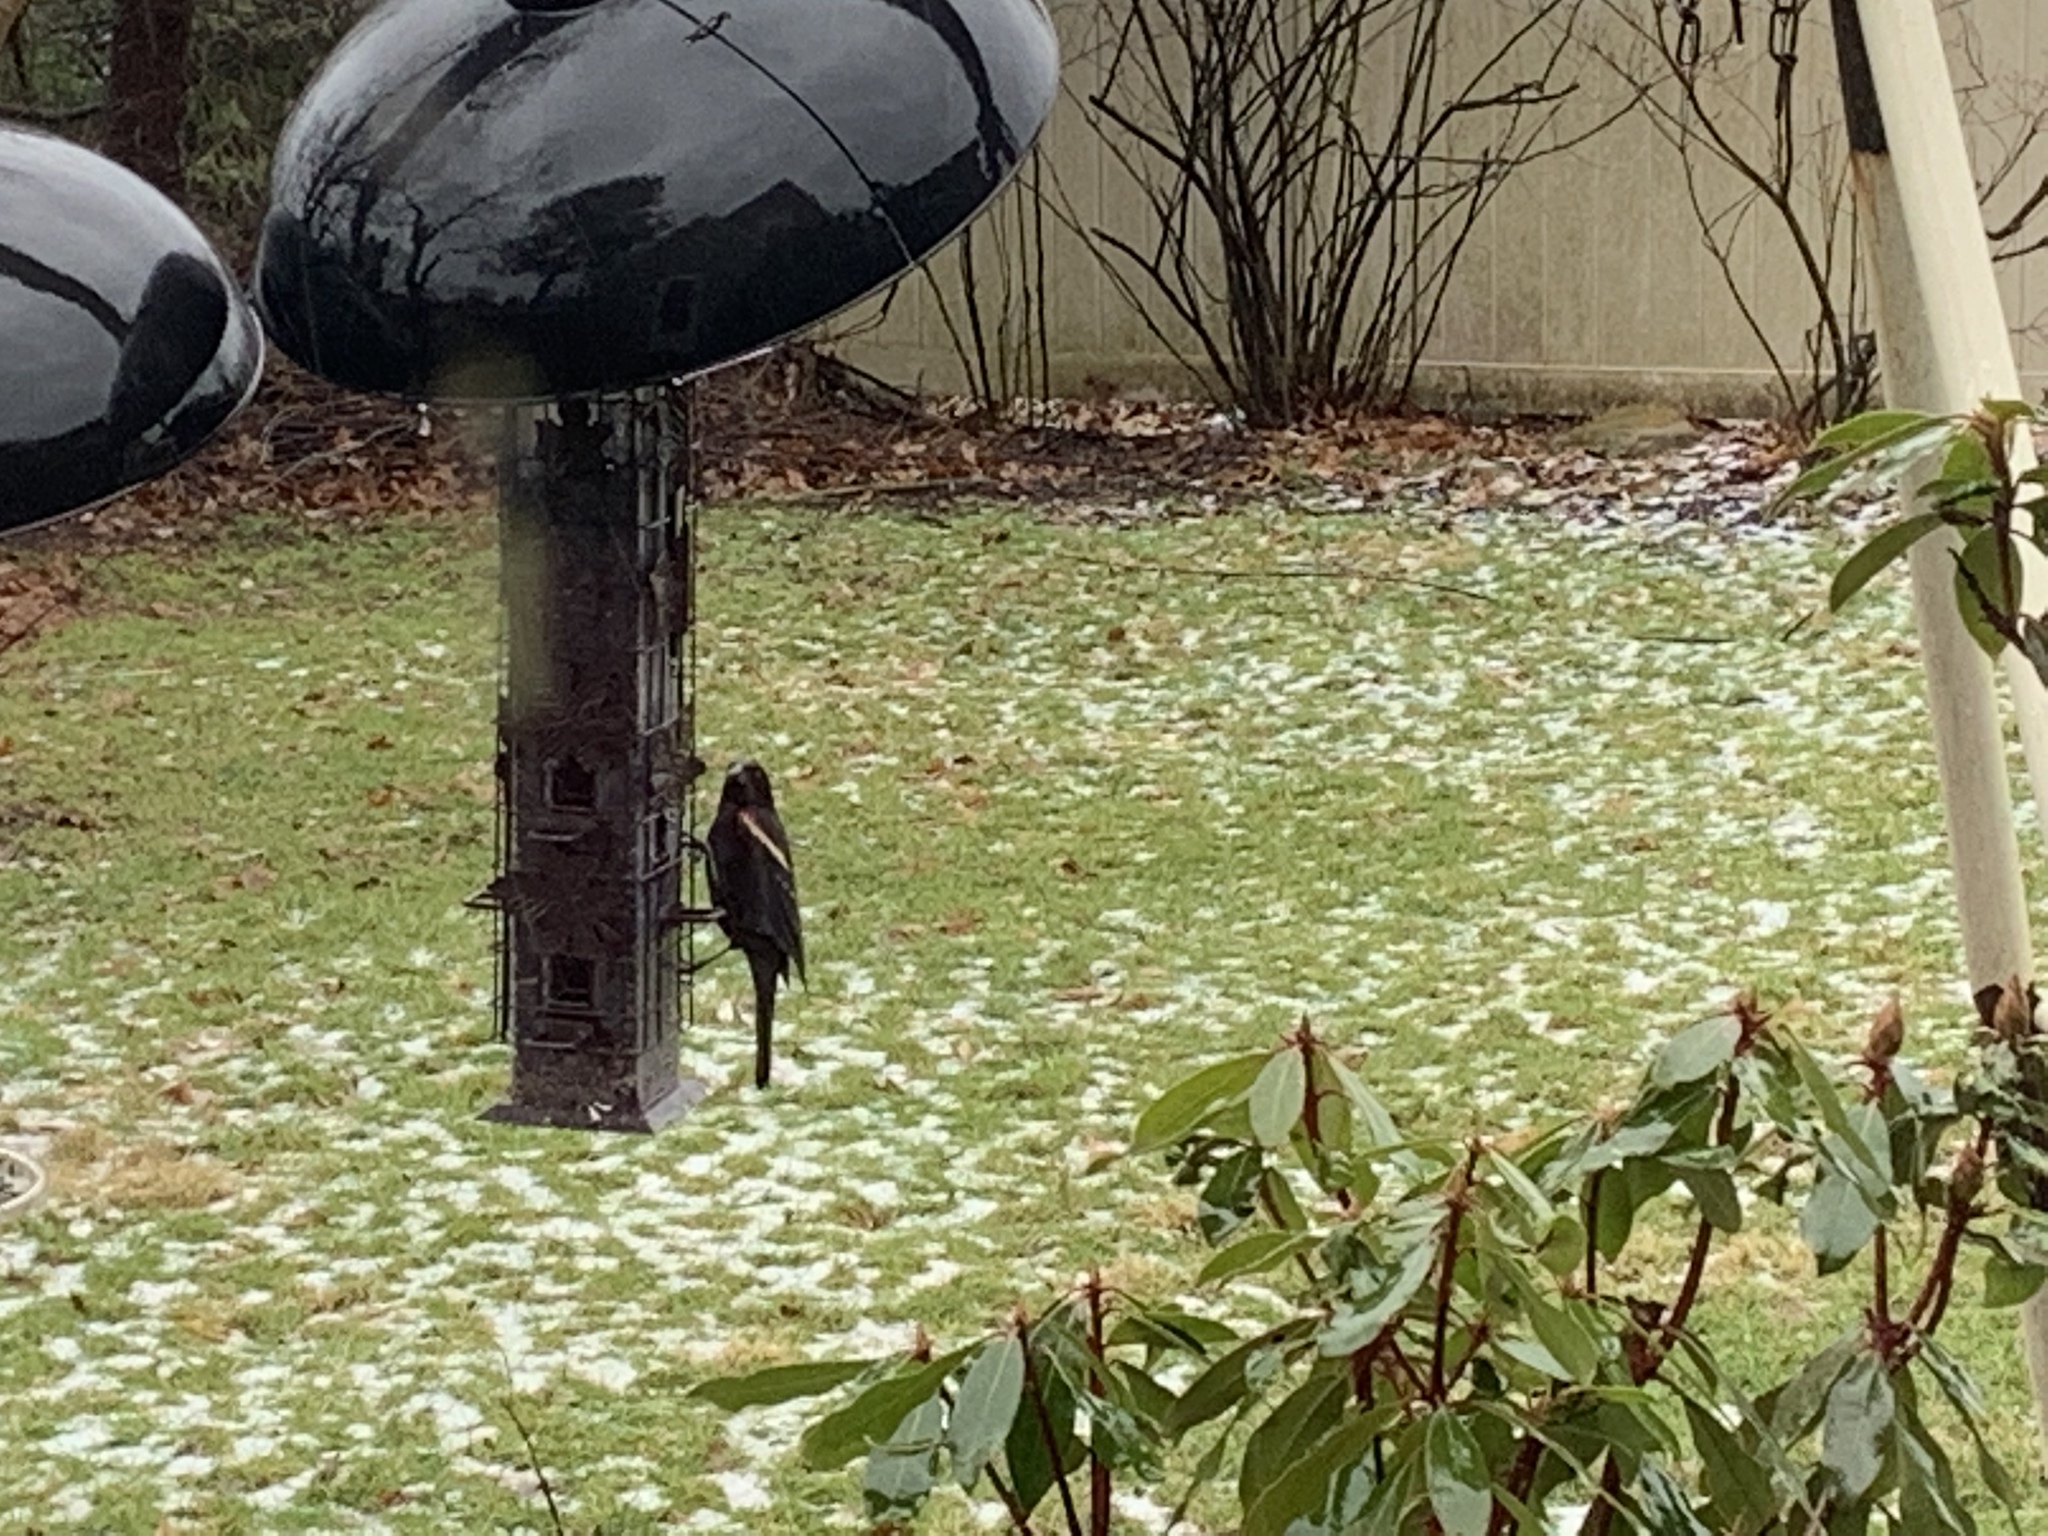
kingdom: Animalia
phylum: Chordata
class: Aves
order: Passeriformes
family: Icteridae
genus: Agelaius
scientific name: Agelaius phoeniceus
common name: Red-winged blackbird
